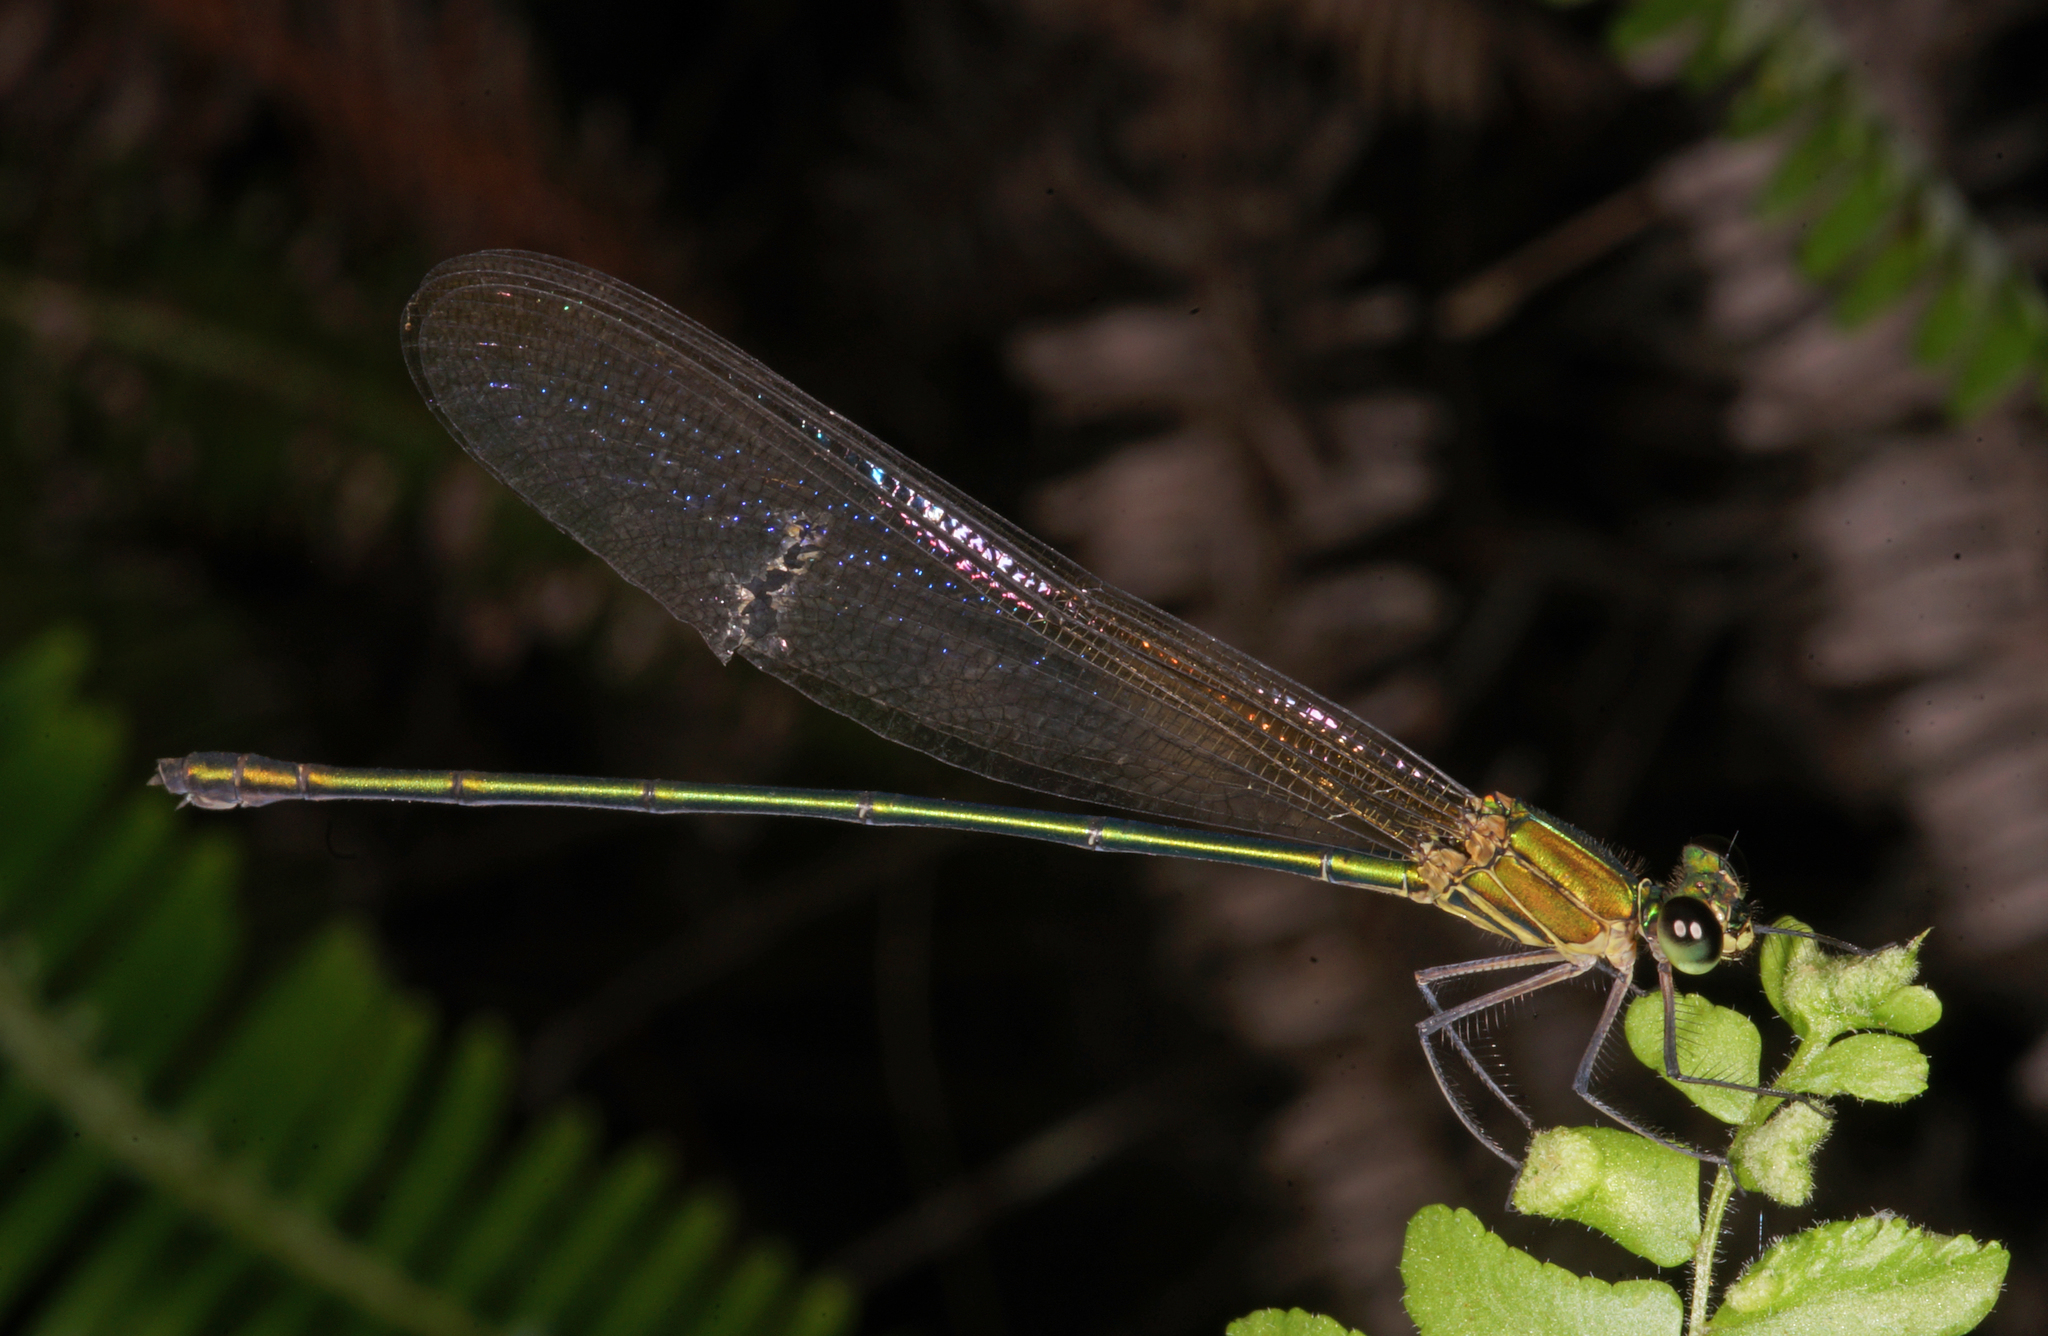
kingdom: Animalia
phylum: Arthropoda
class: Insecta
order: Odonata
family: Calopterygidae
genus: Vestalis
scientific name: Vestalis gracilis
